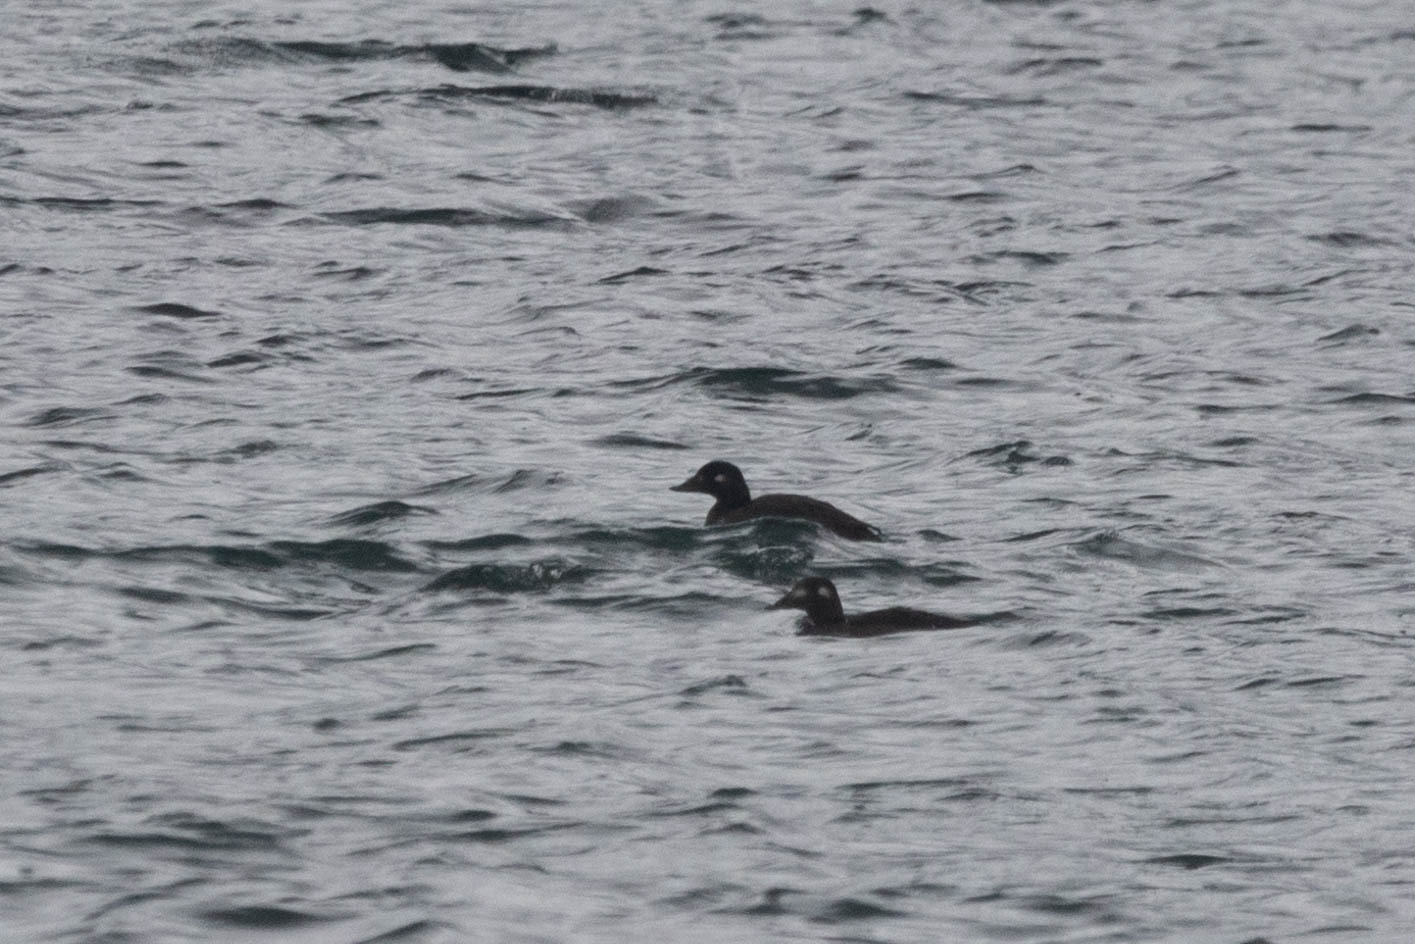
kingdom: Animalia
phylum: Chordata
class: Aves
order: Anseriformes
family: Anatidae
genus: Melanitta
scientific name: Melanitta deglandi
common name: White-winged scoter
